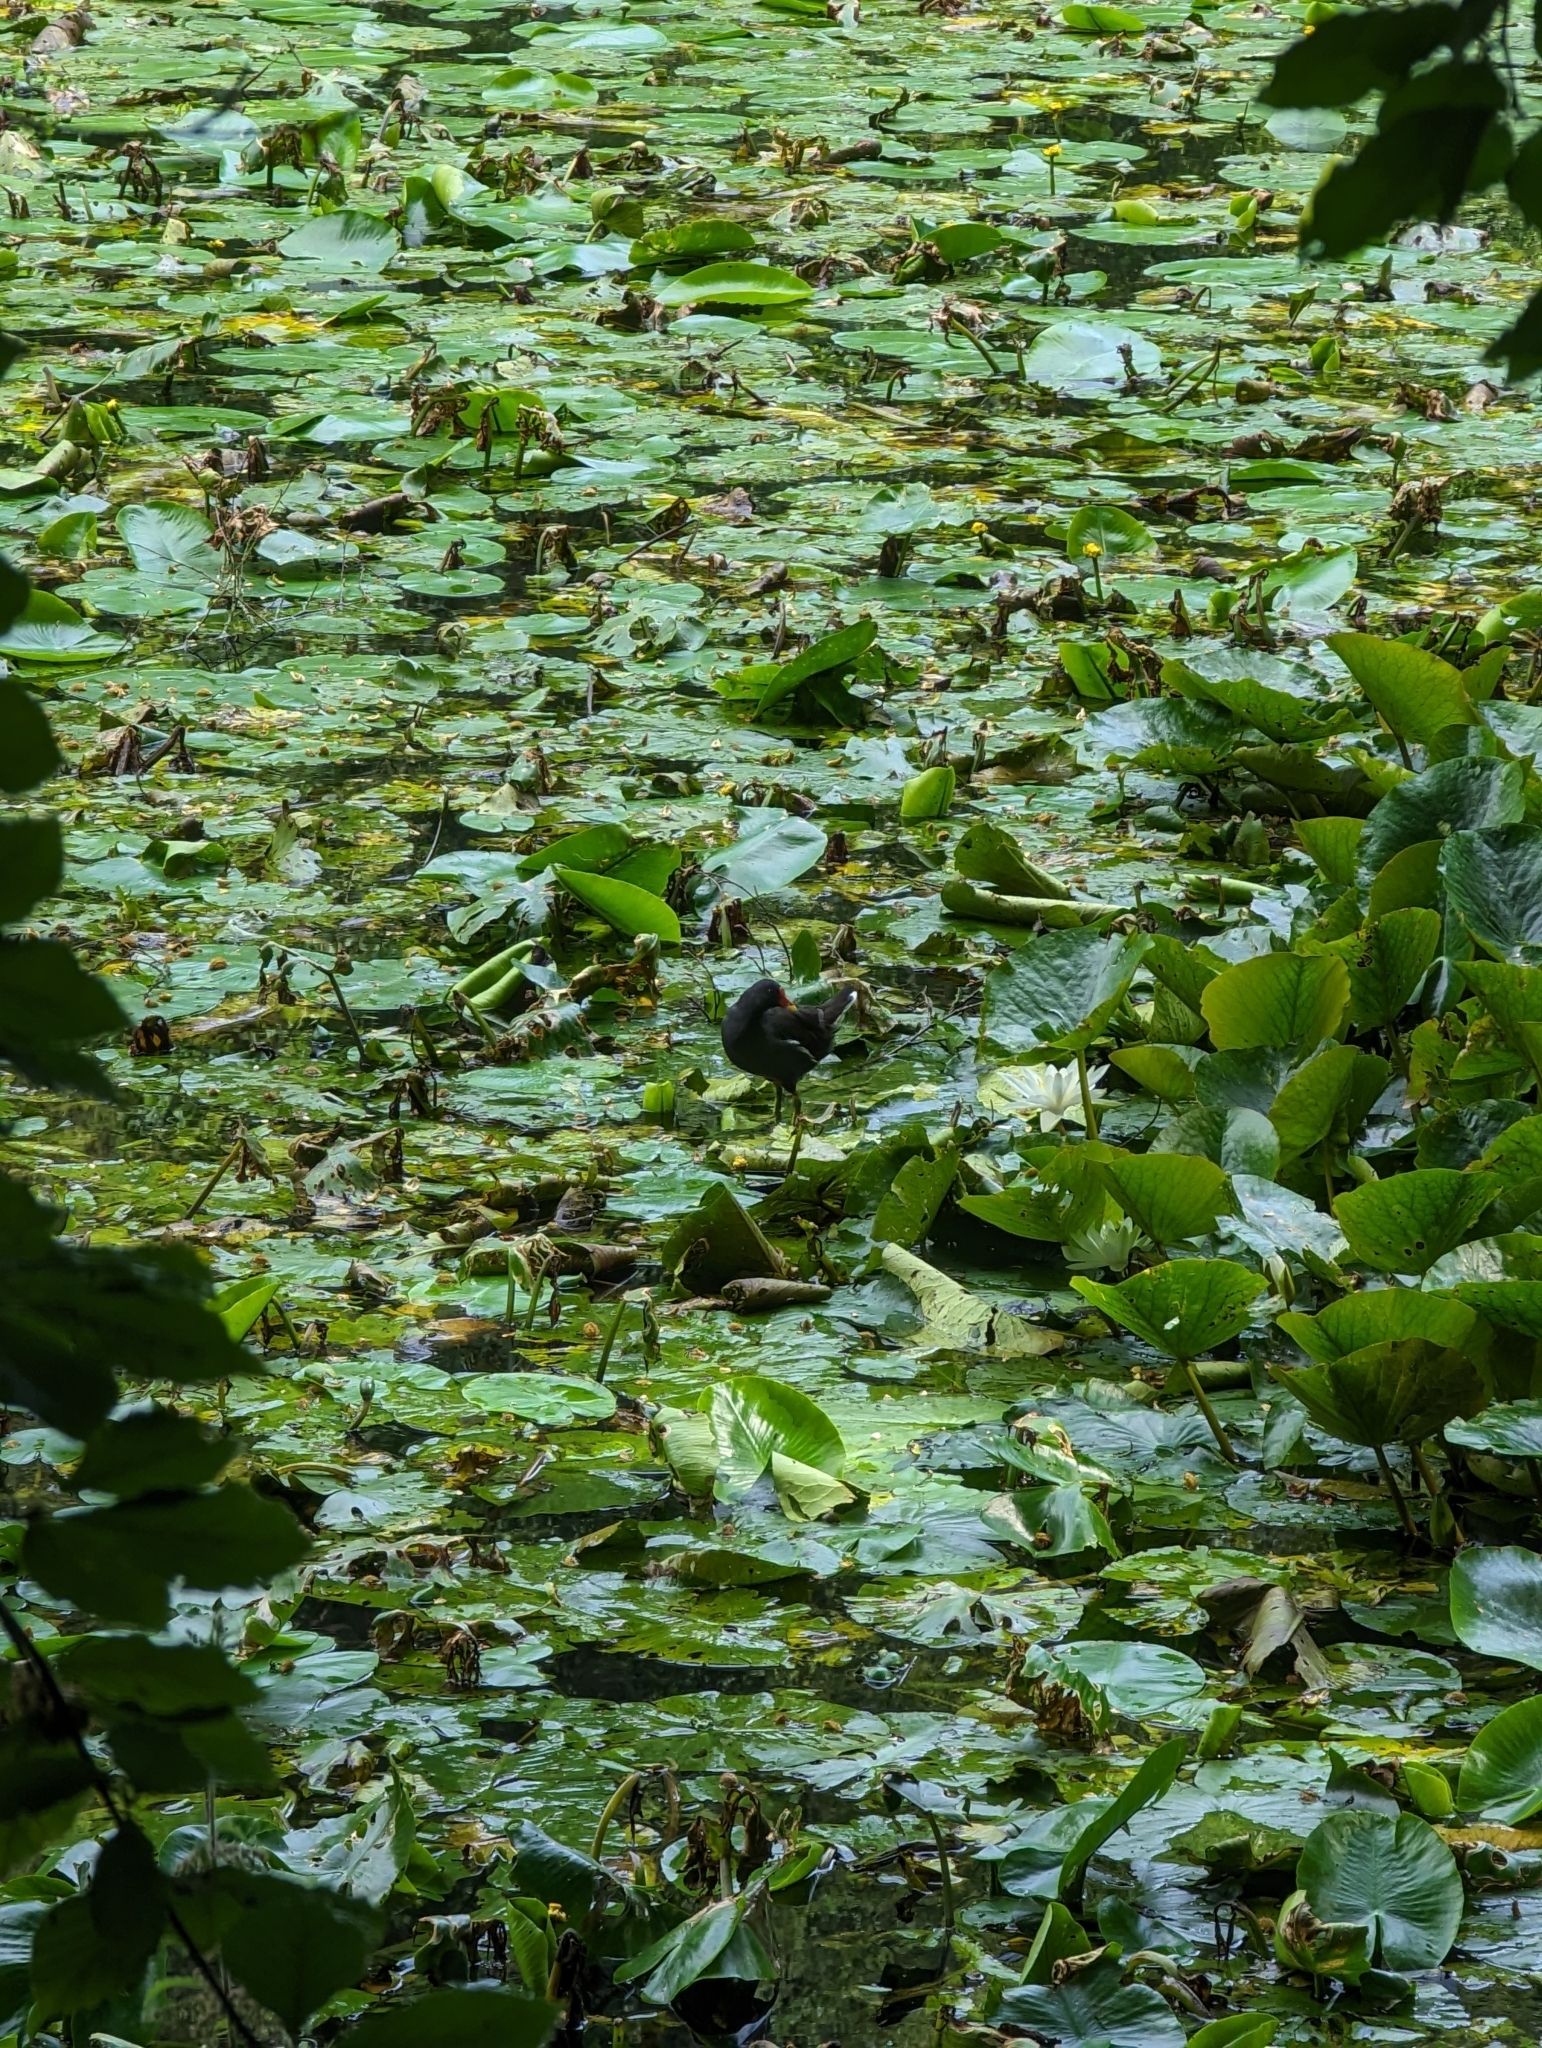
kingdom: Animalia
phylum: Chordata
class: Aves
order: Gruiformes
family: Rallidae
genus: Gallinula
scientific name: Gallinula chloropus
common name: Common moorhen
